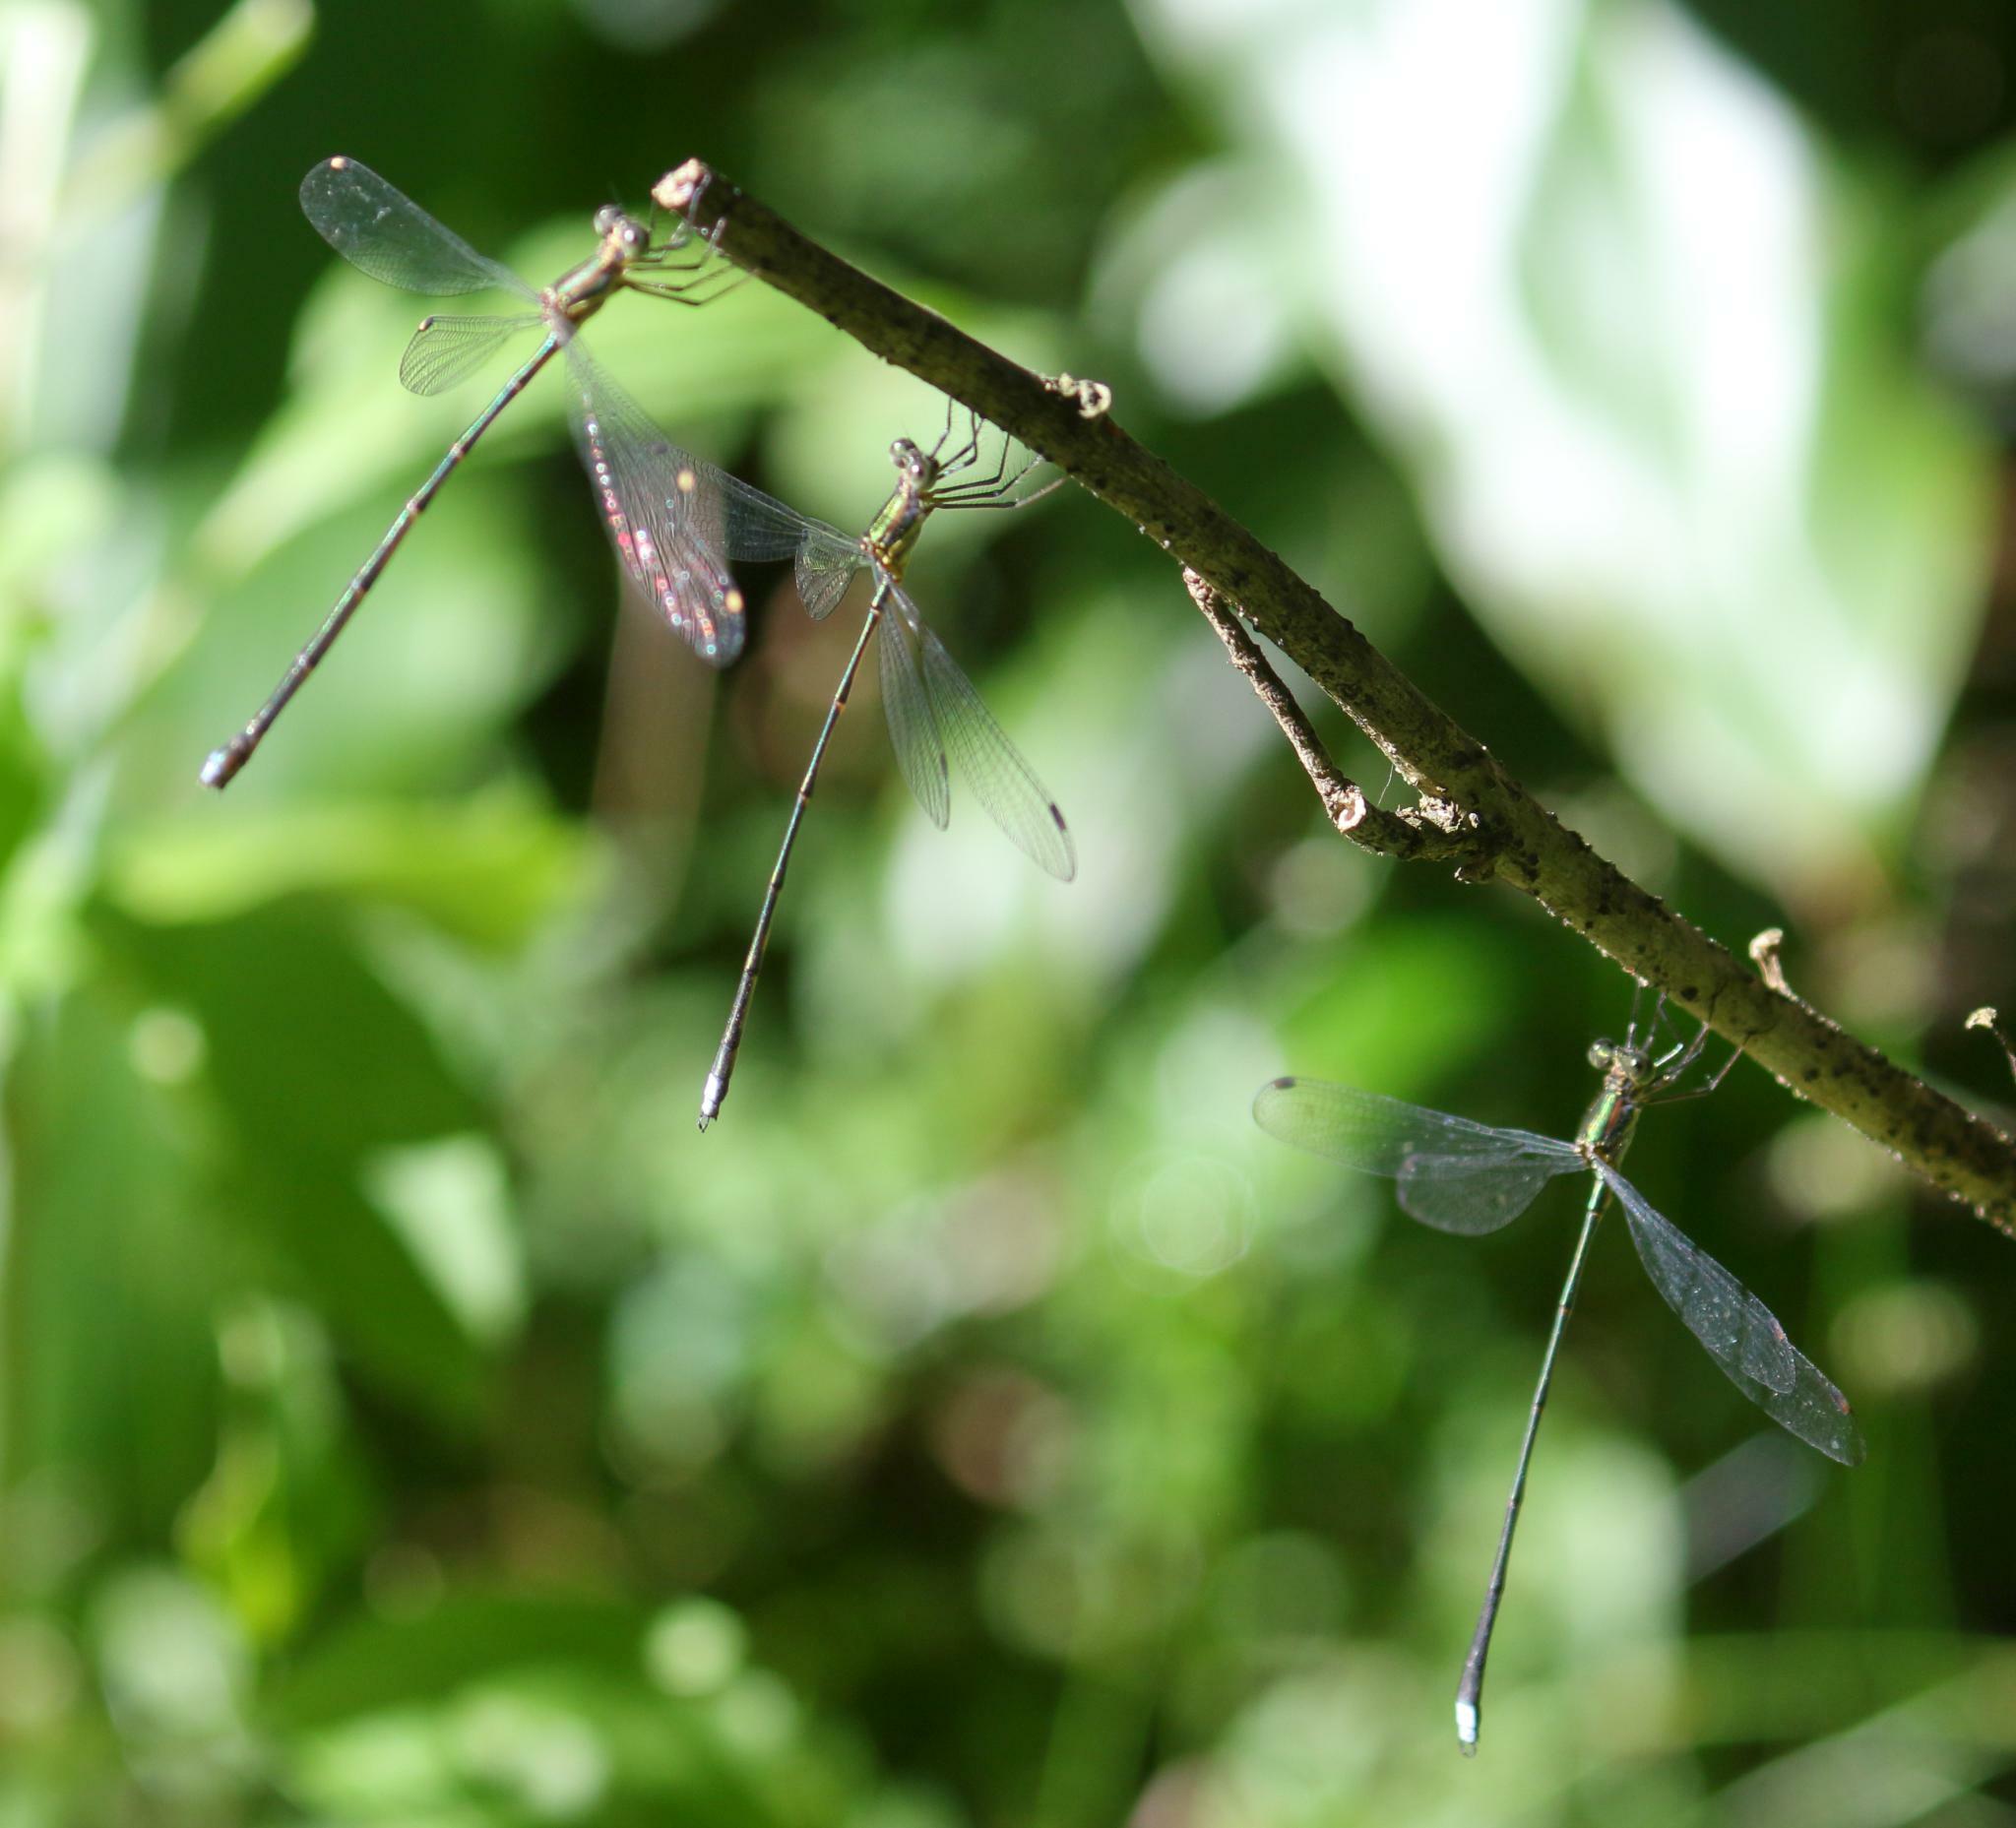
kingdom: Animalia
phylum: Arthropoda
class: Insecta
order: Odonata
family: Synlestidae
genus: Chlorolestes
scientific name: Chlorolestes tessellatus
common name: Forest malachite
